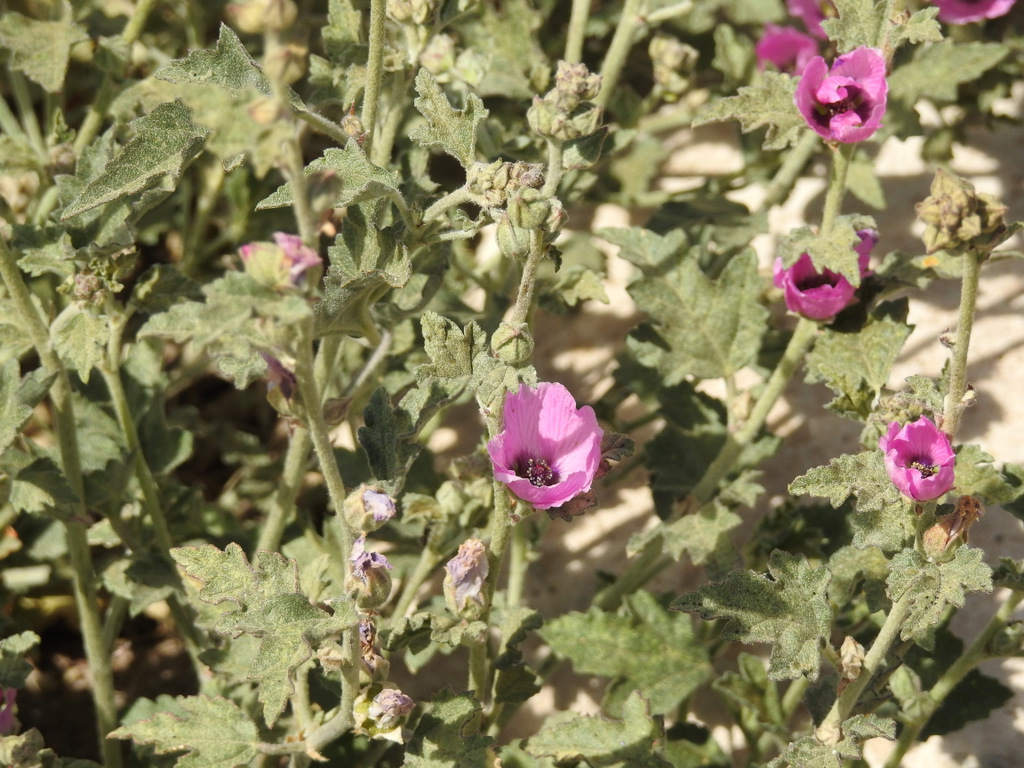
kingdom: Plantae
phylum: Tracheophyta
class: Magnoliopsida
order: Malvales
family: Malvaceae
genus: Sphaeralcea
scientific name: Sphaeralcea mendocina
